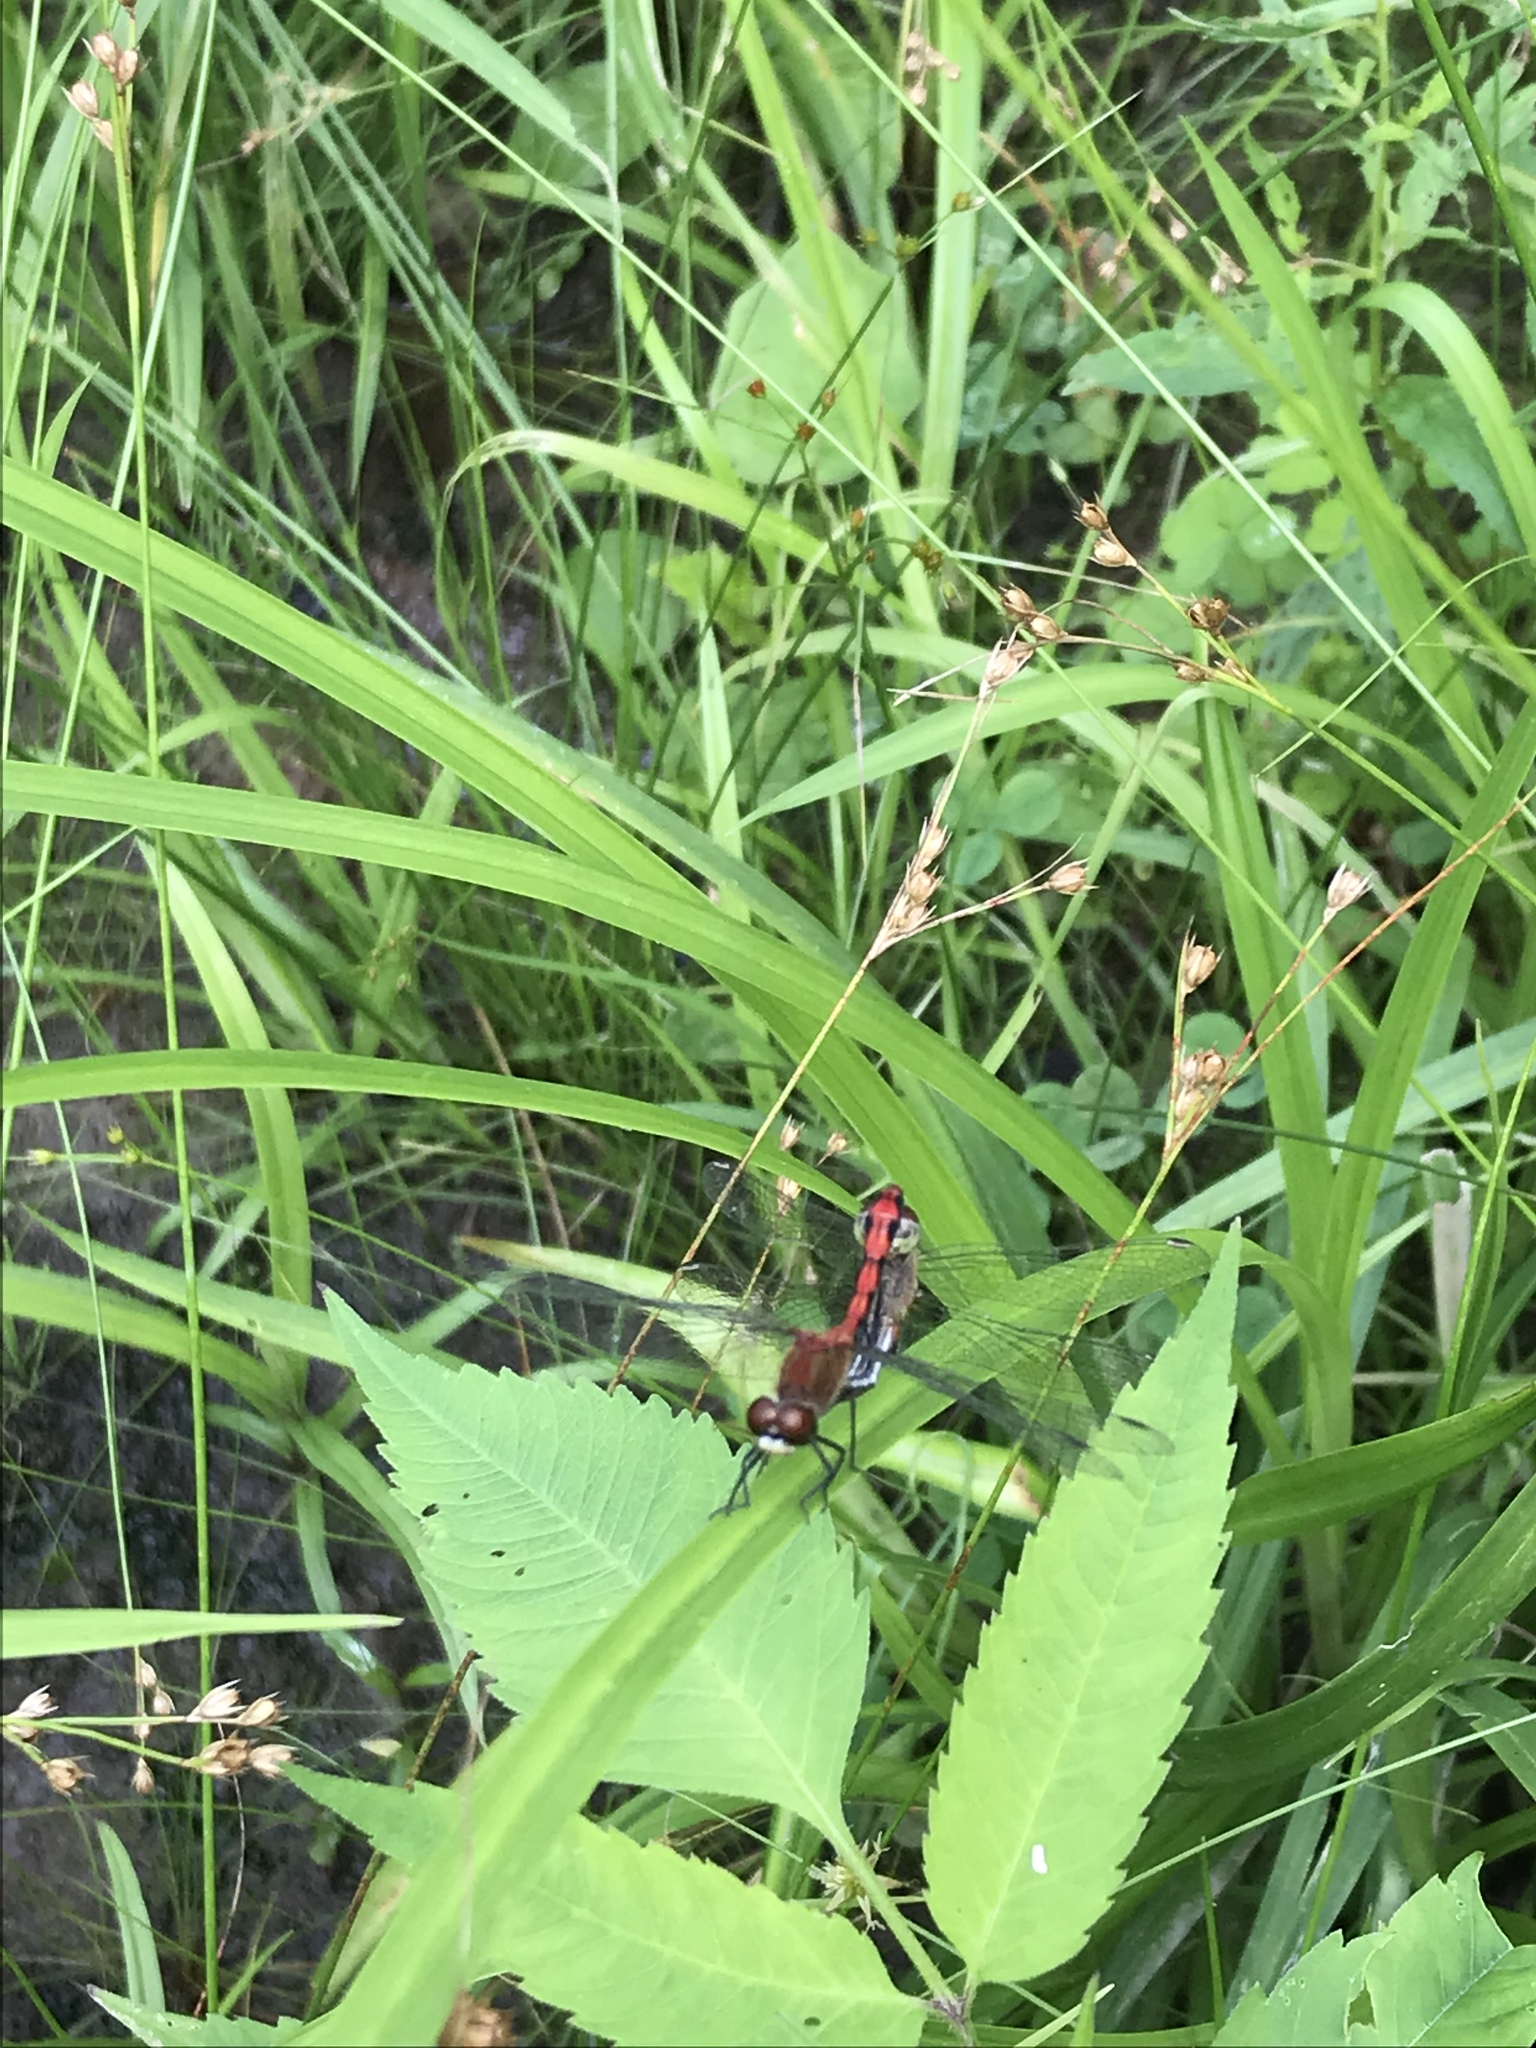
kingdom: Animalia
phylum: Arthropoda
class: Insecta
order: Odonata
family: Libellulidae
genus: Sympetrum
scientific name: Sympetrum obtrusum
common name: White-faced meadowhawk
